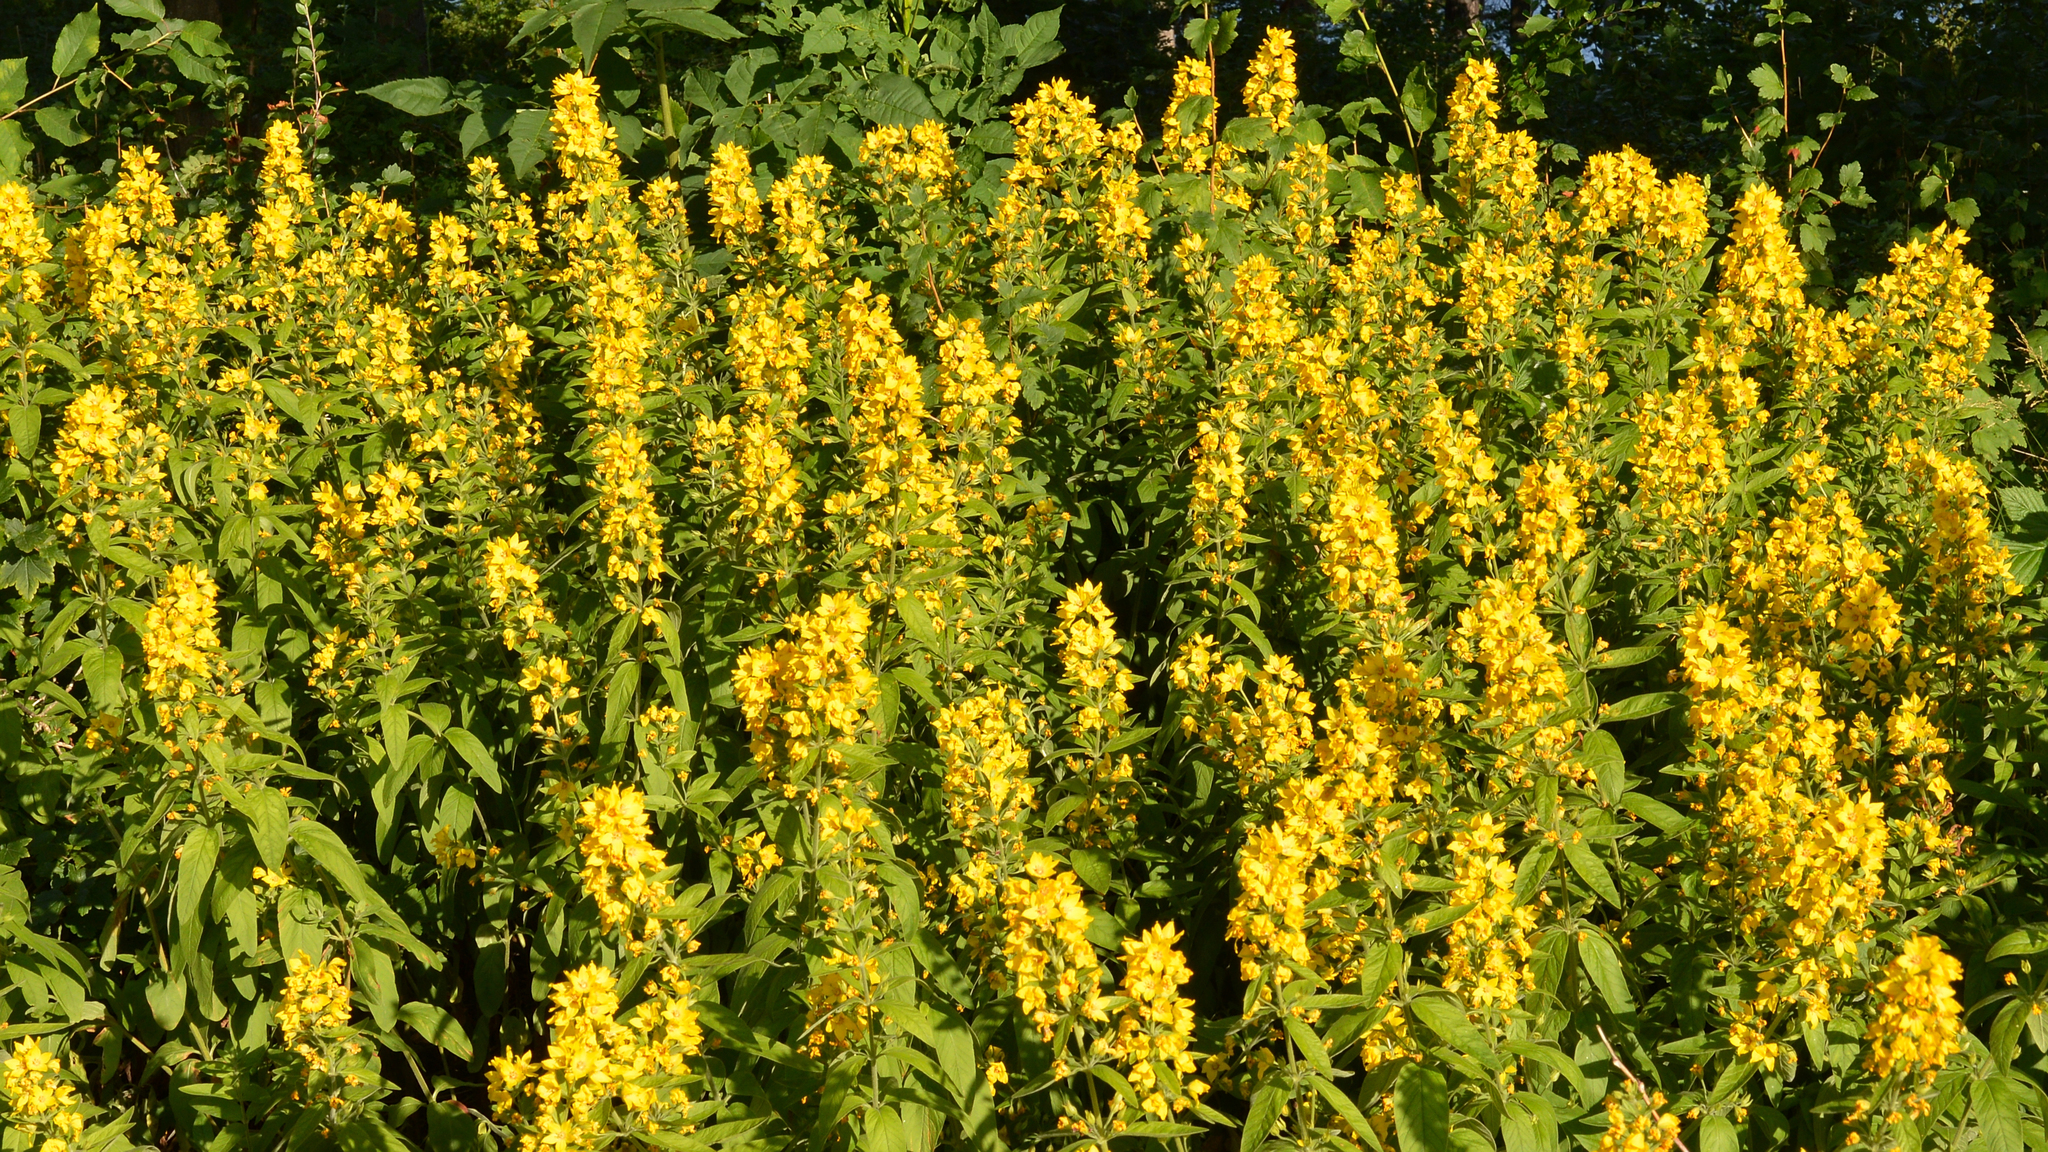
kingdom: Plantae
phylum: Tracheophyta
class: Magnoliopsida
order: Ericales
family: Primulaceae
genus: Lysimachia
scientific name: Lysimachia punctata
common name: Dotted loosestrife
